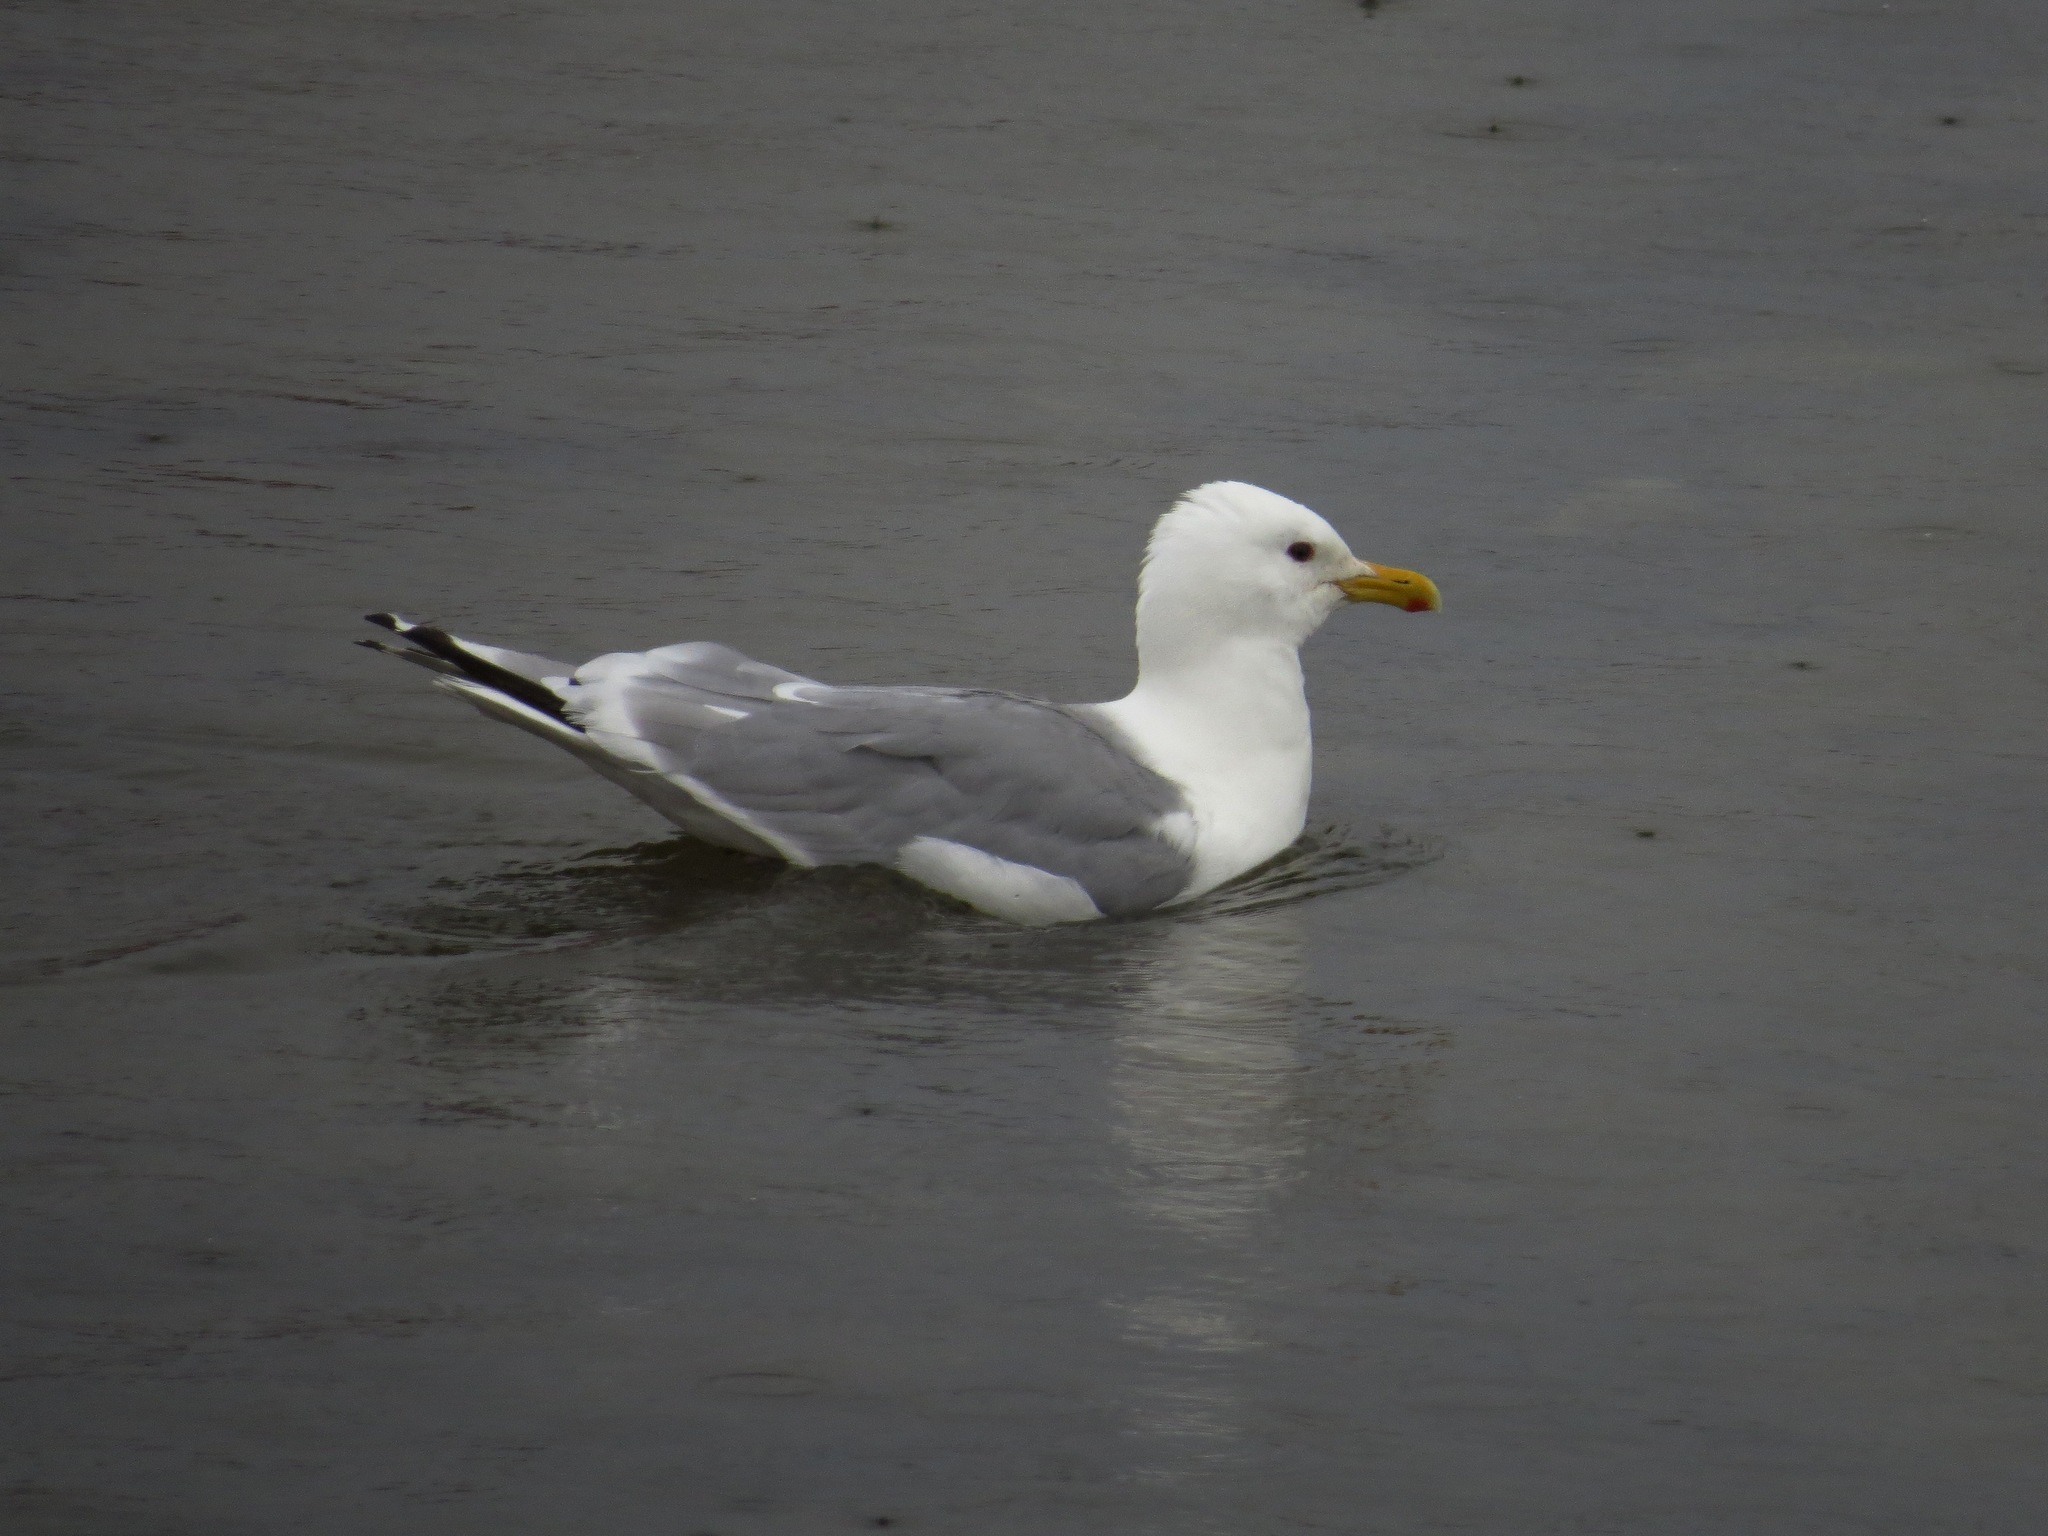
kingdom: Animalia
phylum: Chordata
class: Aves
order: Charadriiformes
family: Laridae
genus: Larus
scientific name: Larus glaucoides
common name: Iceland gull
